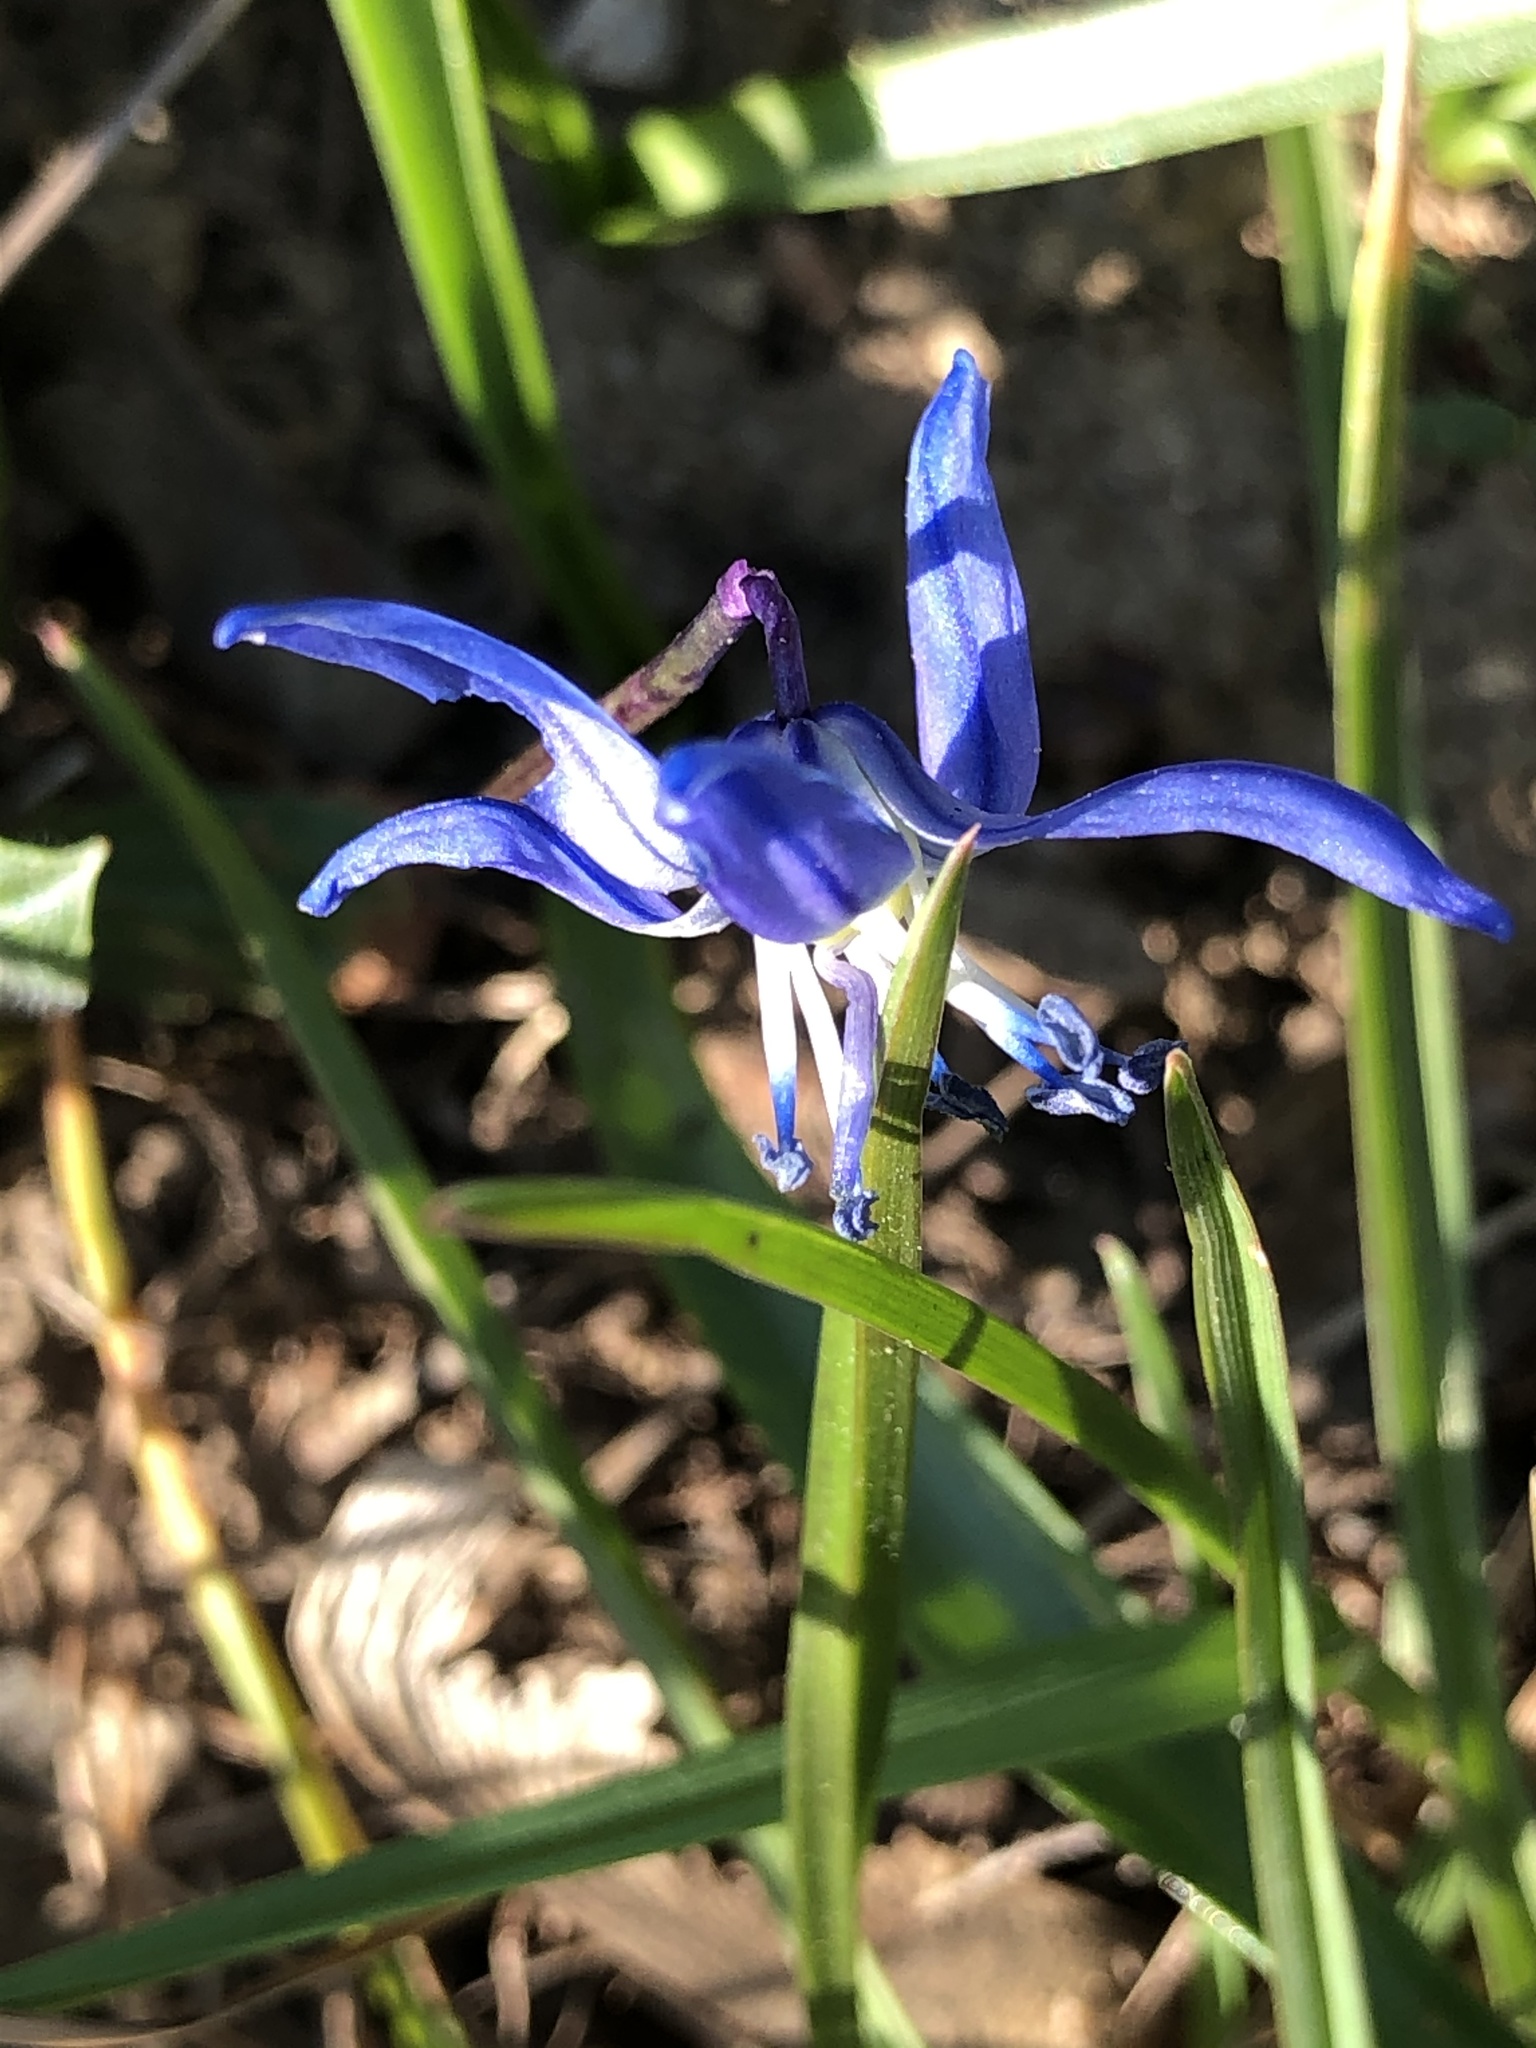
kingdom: Plantae
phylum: Tracheophyta
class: Liliopsida
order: Asparagales
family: Asparagaceae
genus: Scilla
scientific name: Scilla siberica
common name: Siberian squill
